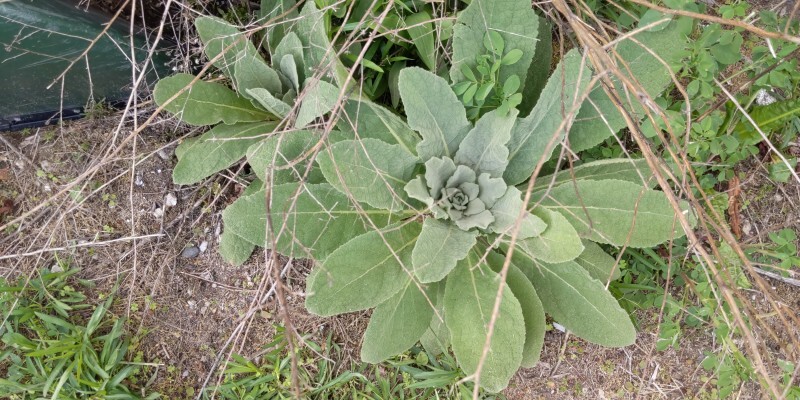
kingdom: Plantae
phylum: Tracheophyta
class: Magnoliopsida
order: Lamiales
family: Scrophulariaceae
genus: Verbascum
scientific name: Verbascum thapsus
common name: Common mullein
